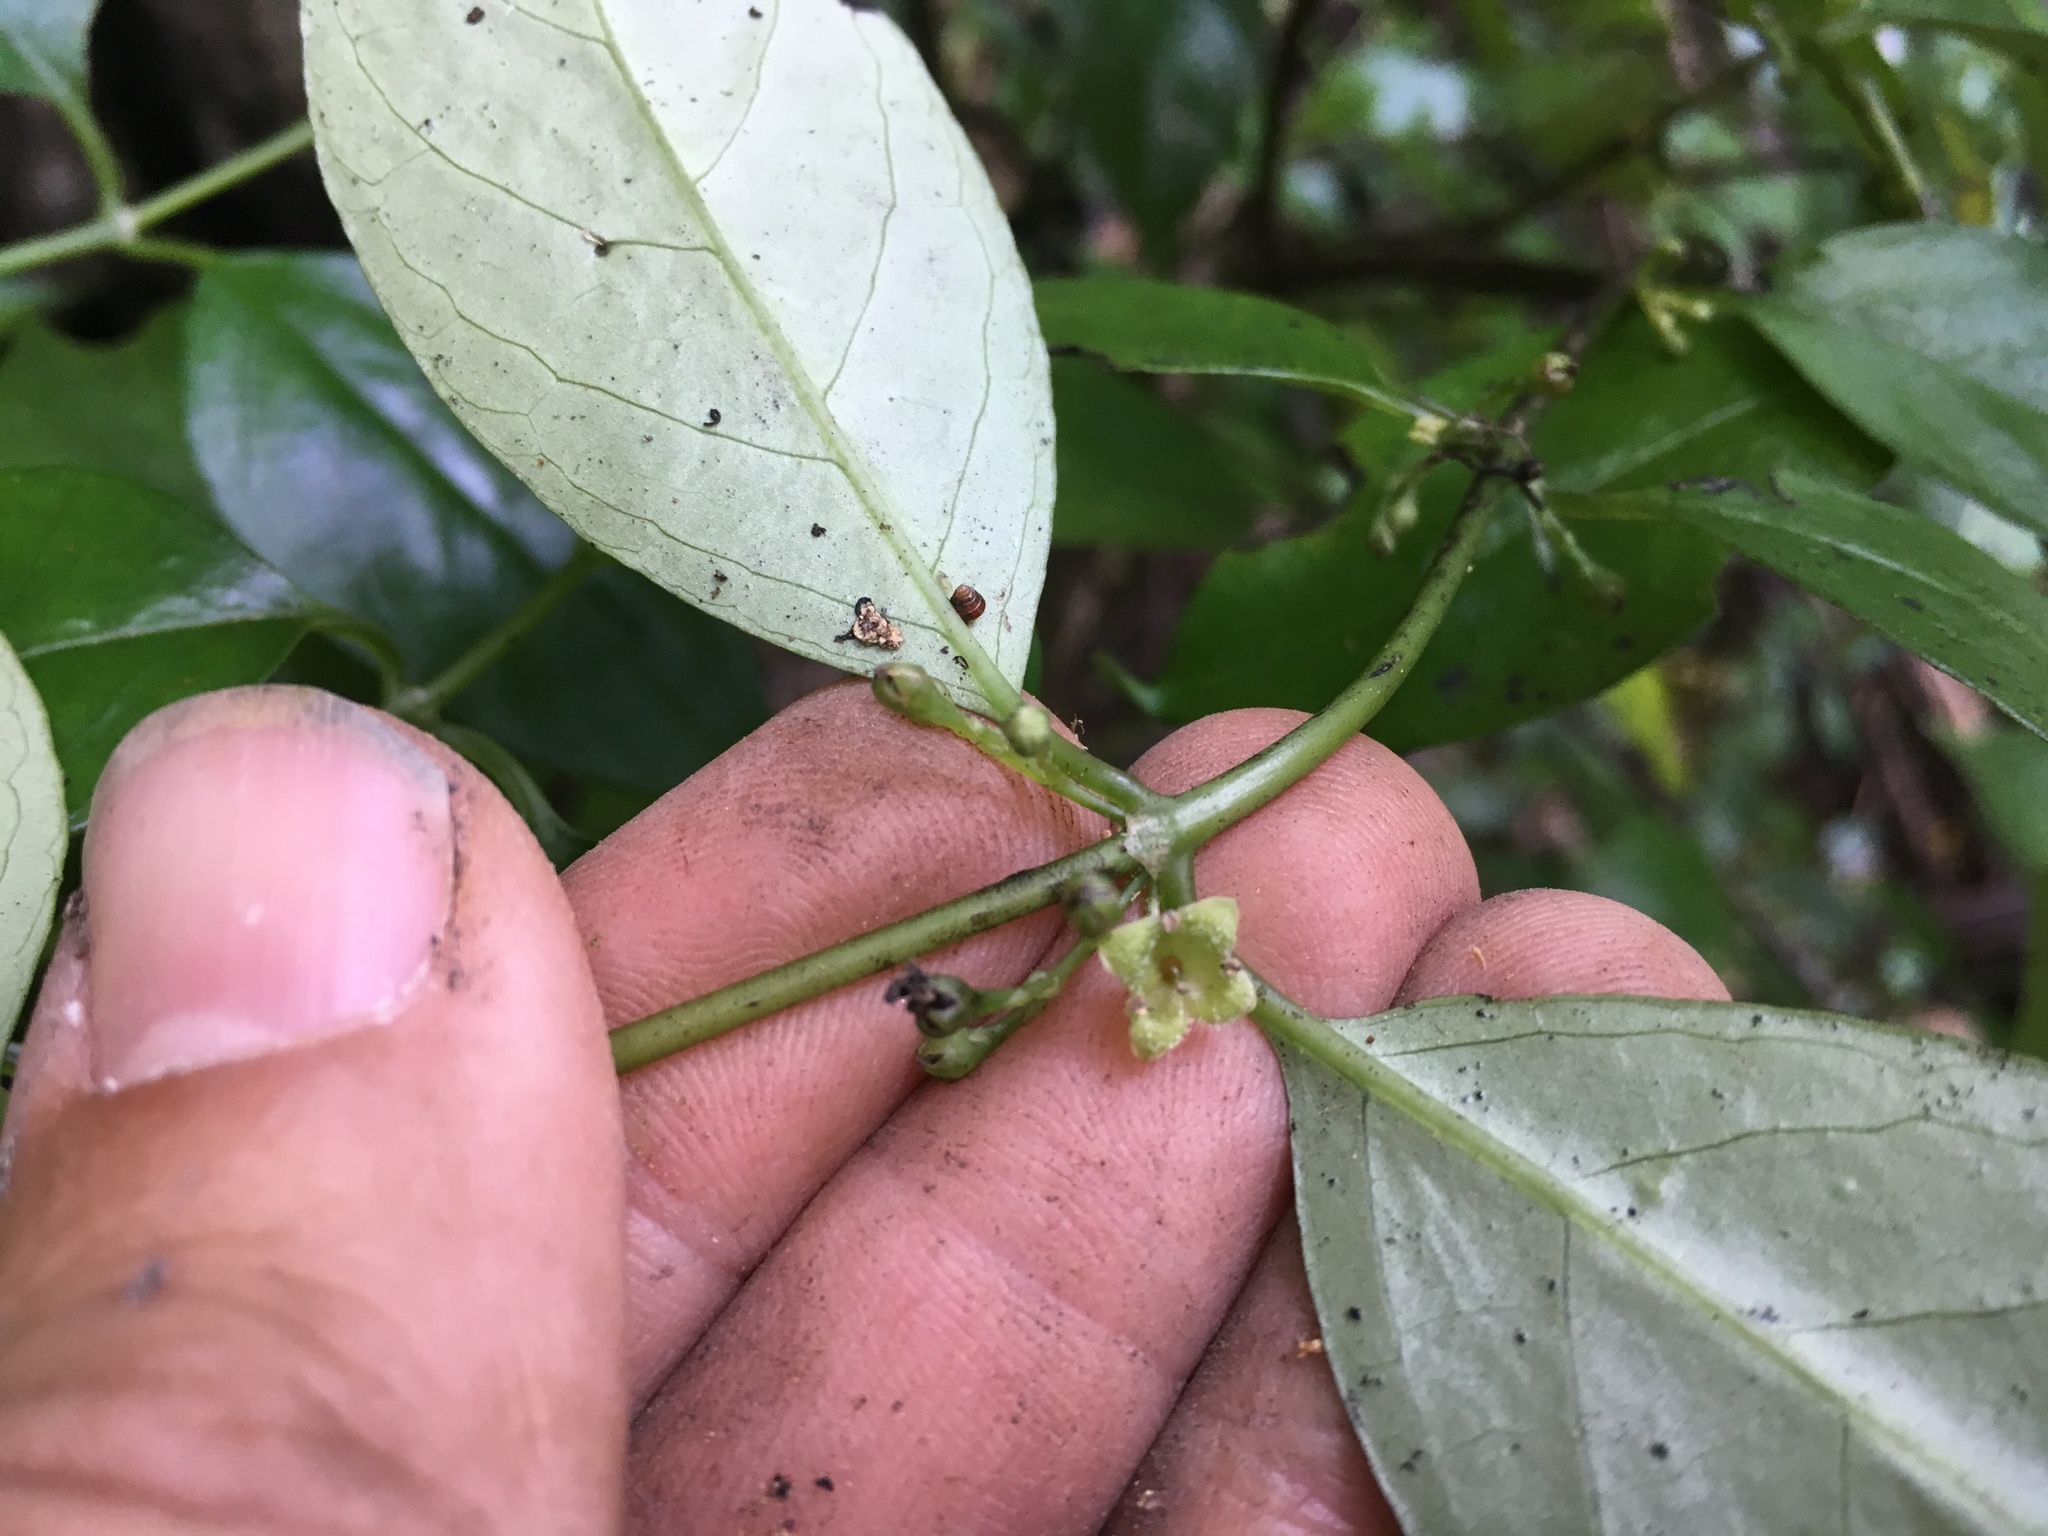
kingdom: Plantae
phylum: Tracheophyta
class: Magnoliopsida
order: Gentianales
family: Loganiaceae
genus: Geniostoma
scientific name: Geniostoma ligustrifolium
